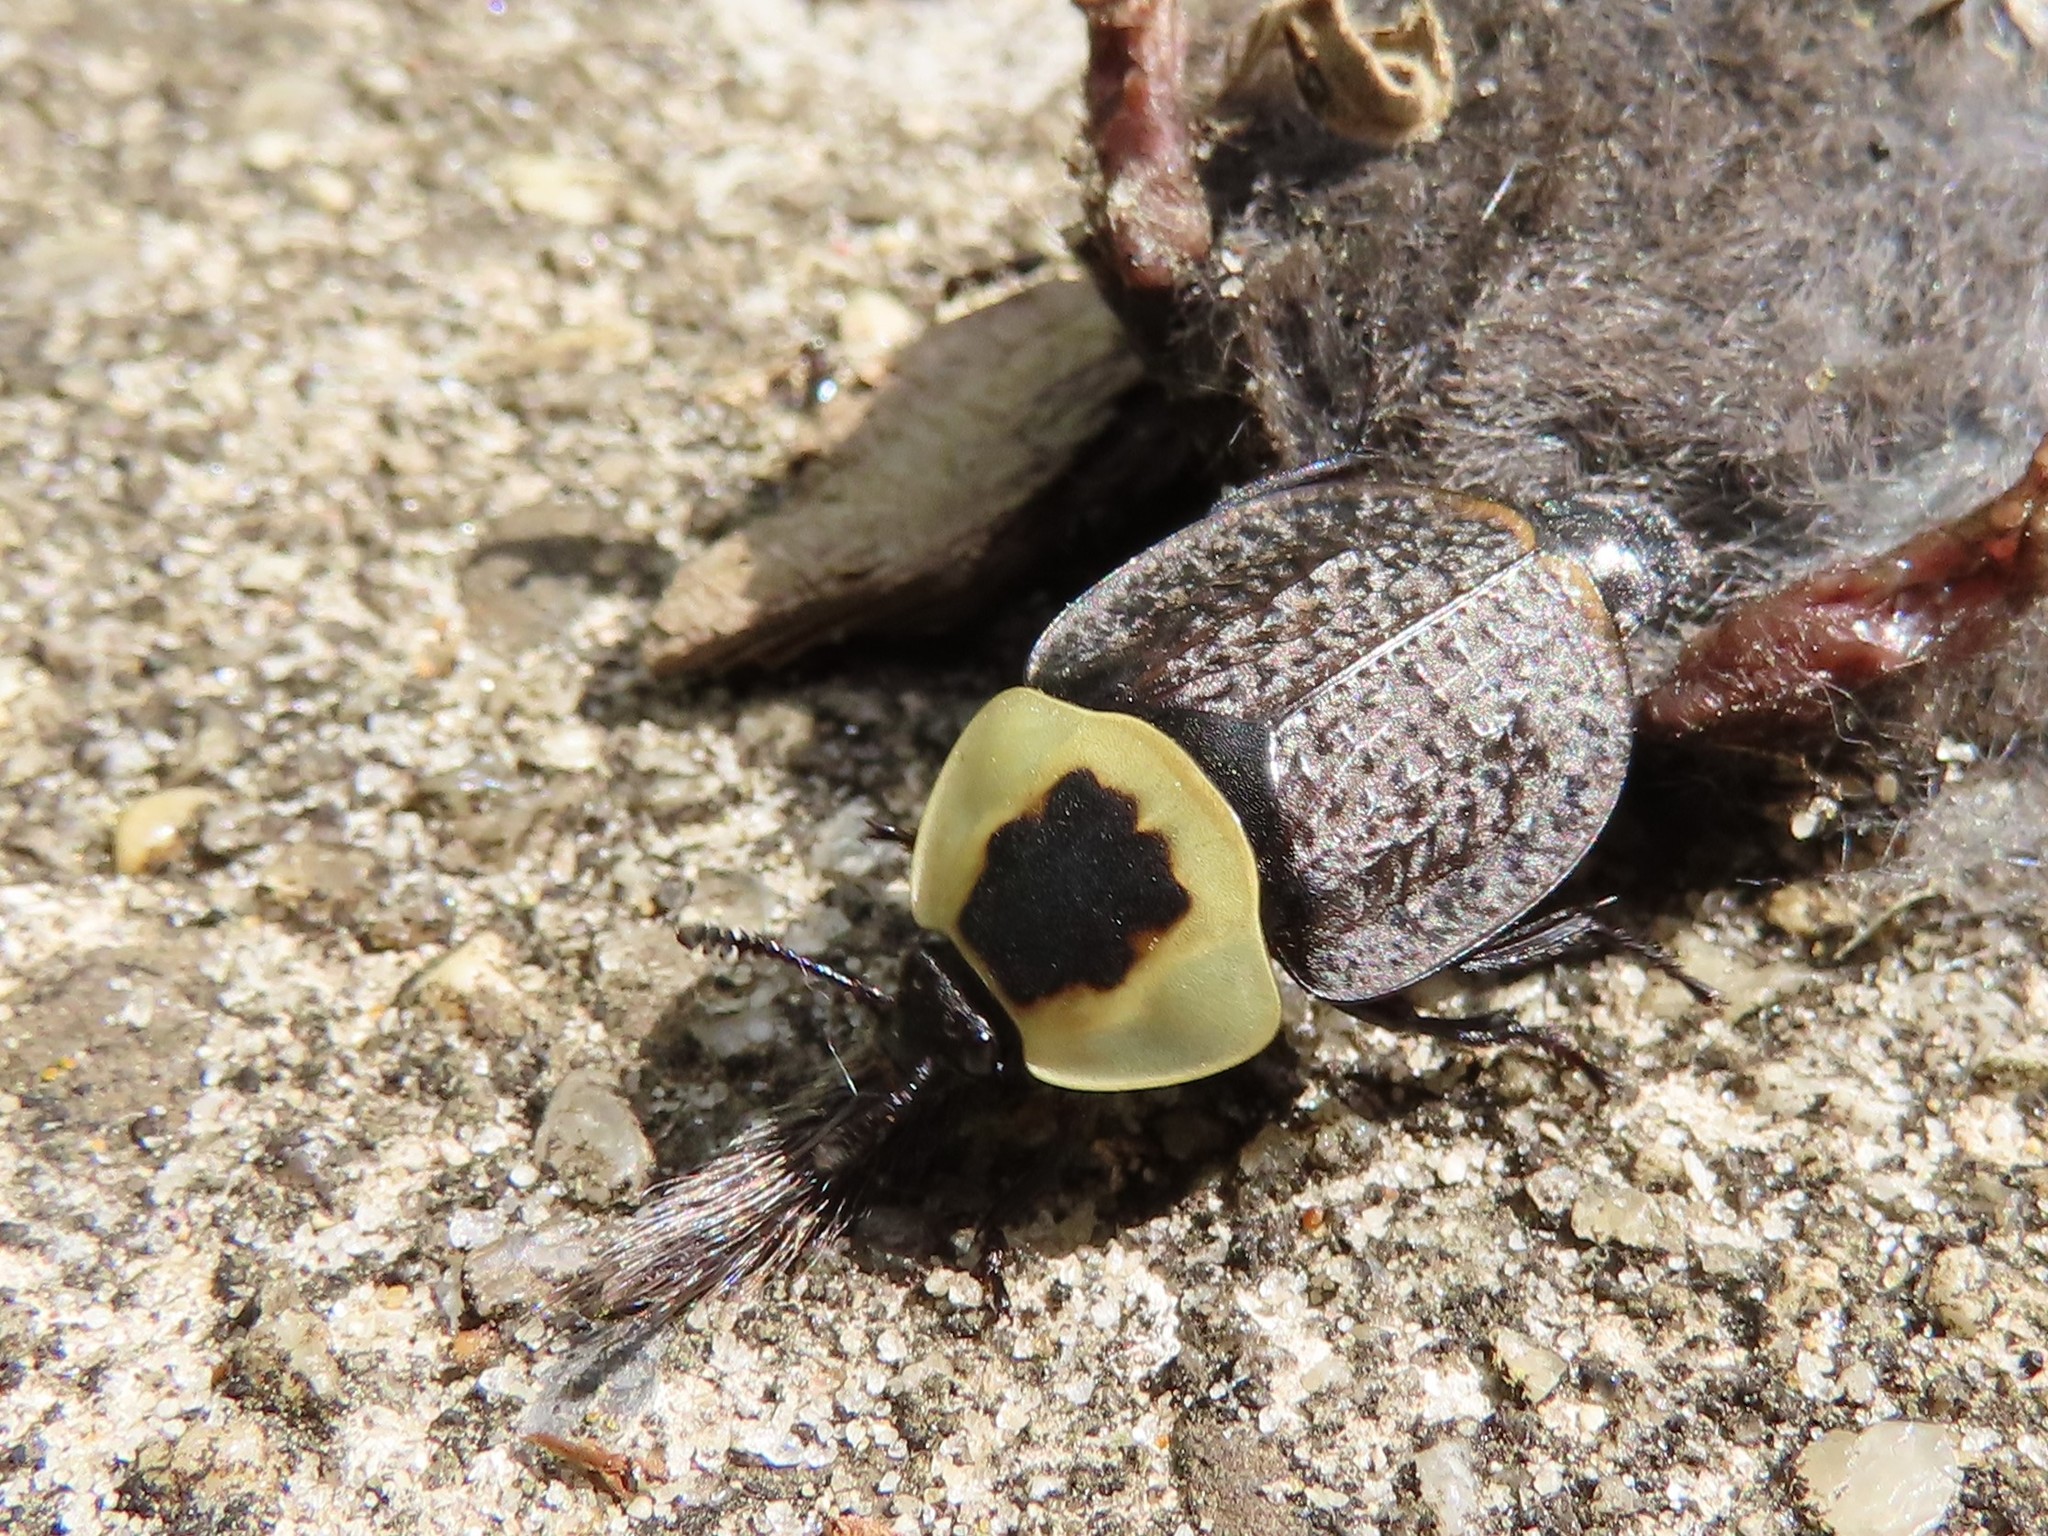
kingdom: Animalia
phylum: Arthropoda
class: Insecta
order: Coleoptera
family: Staphylinidae
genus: Necrophila
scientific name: Necrophila americana
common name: American carrion beetle
